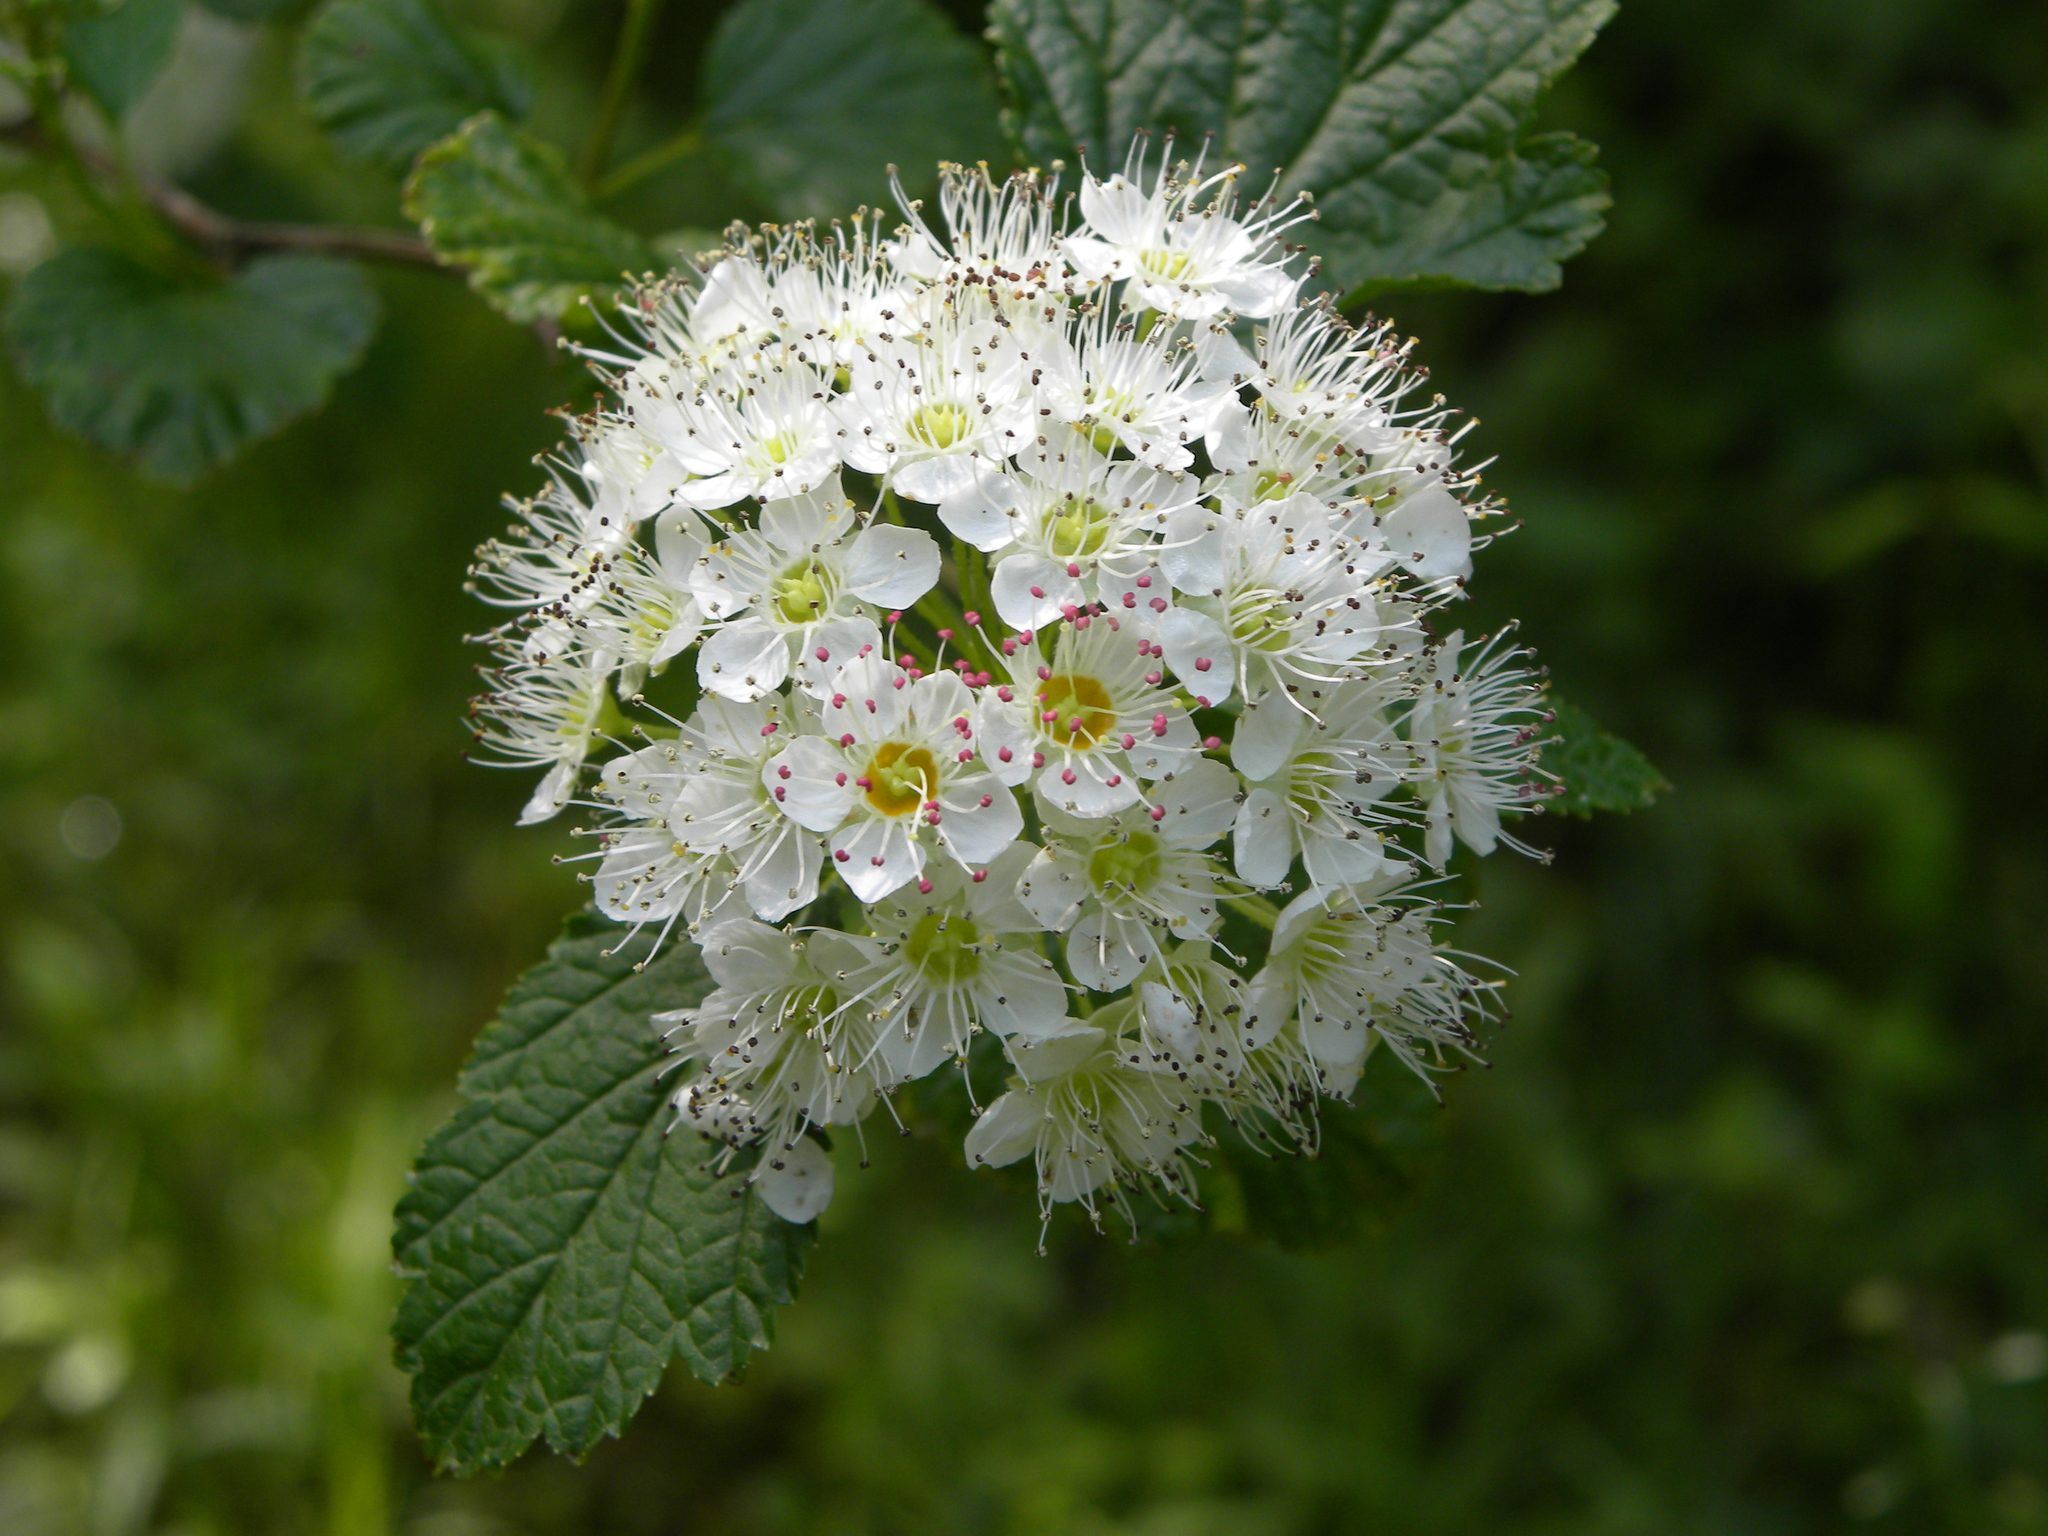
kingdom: Plantae
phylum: Tracheophyta
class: Magnoliopsida
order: Rosales
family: Rosaceae
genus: Physocarpus
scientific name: Physocarpus opulifolius
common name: Ninebark
